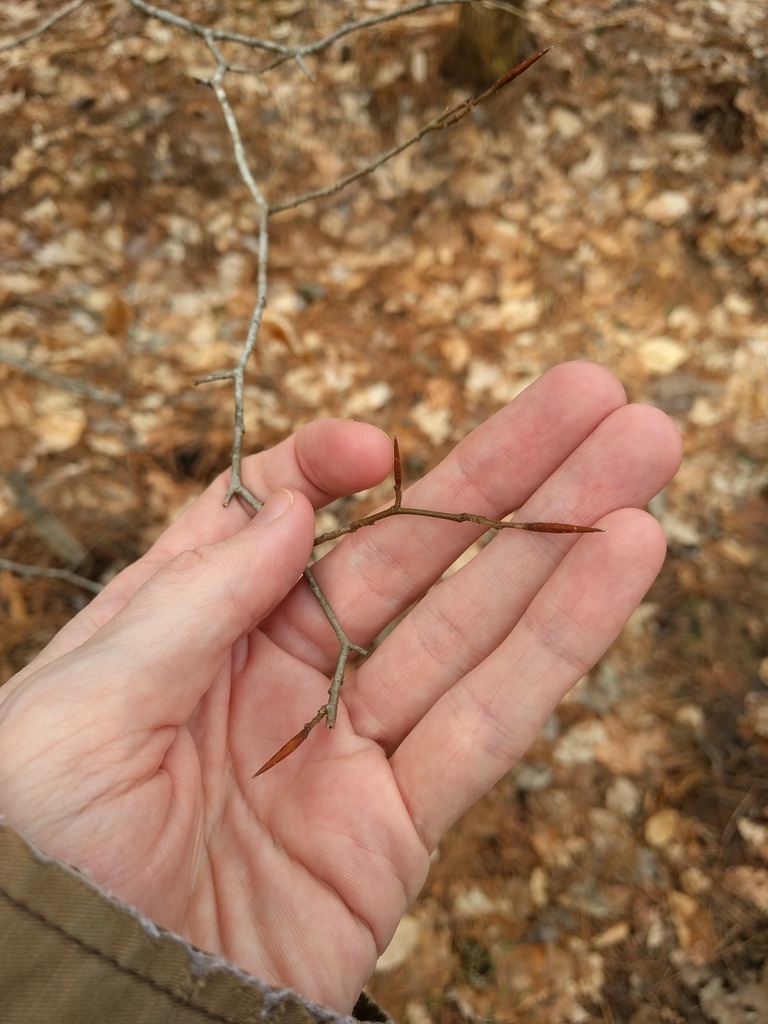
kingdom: Plantae
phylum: Tracheophyta
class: Magnoliopsida
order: Fagales
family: Fagaceae
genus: Fagus
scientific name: Fagus grandifolia
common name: American beech
